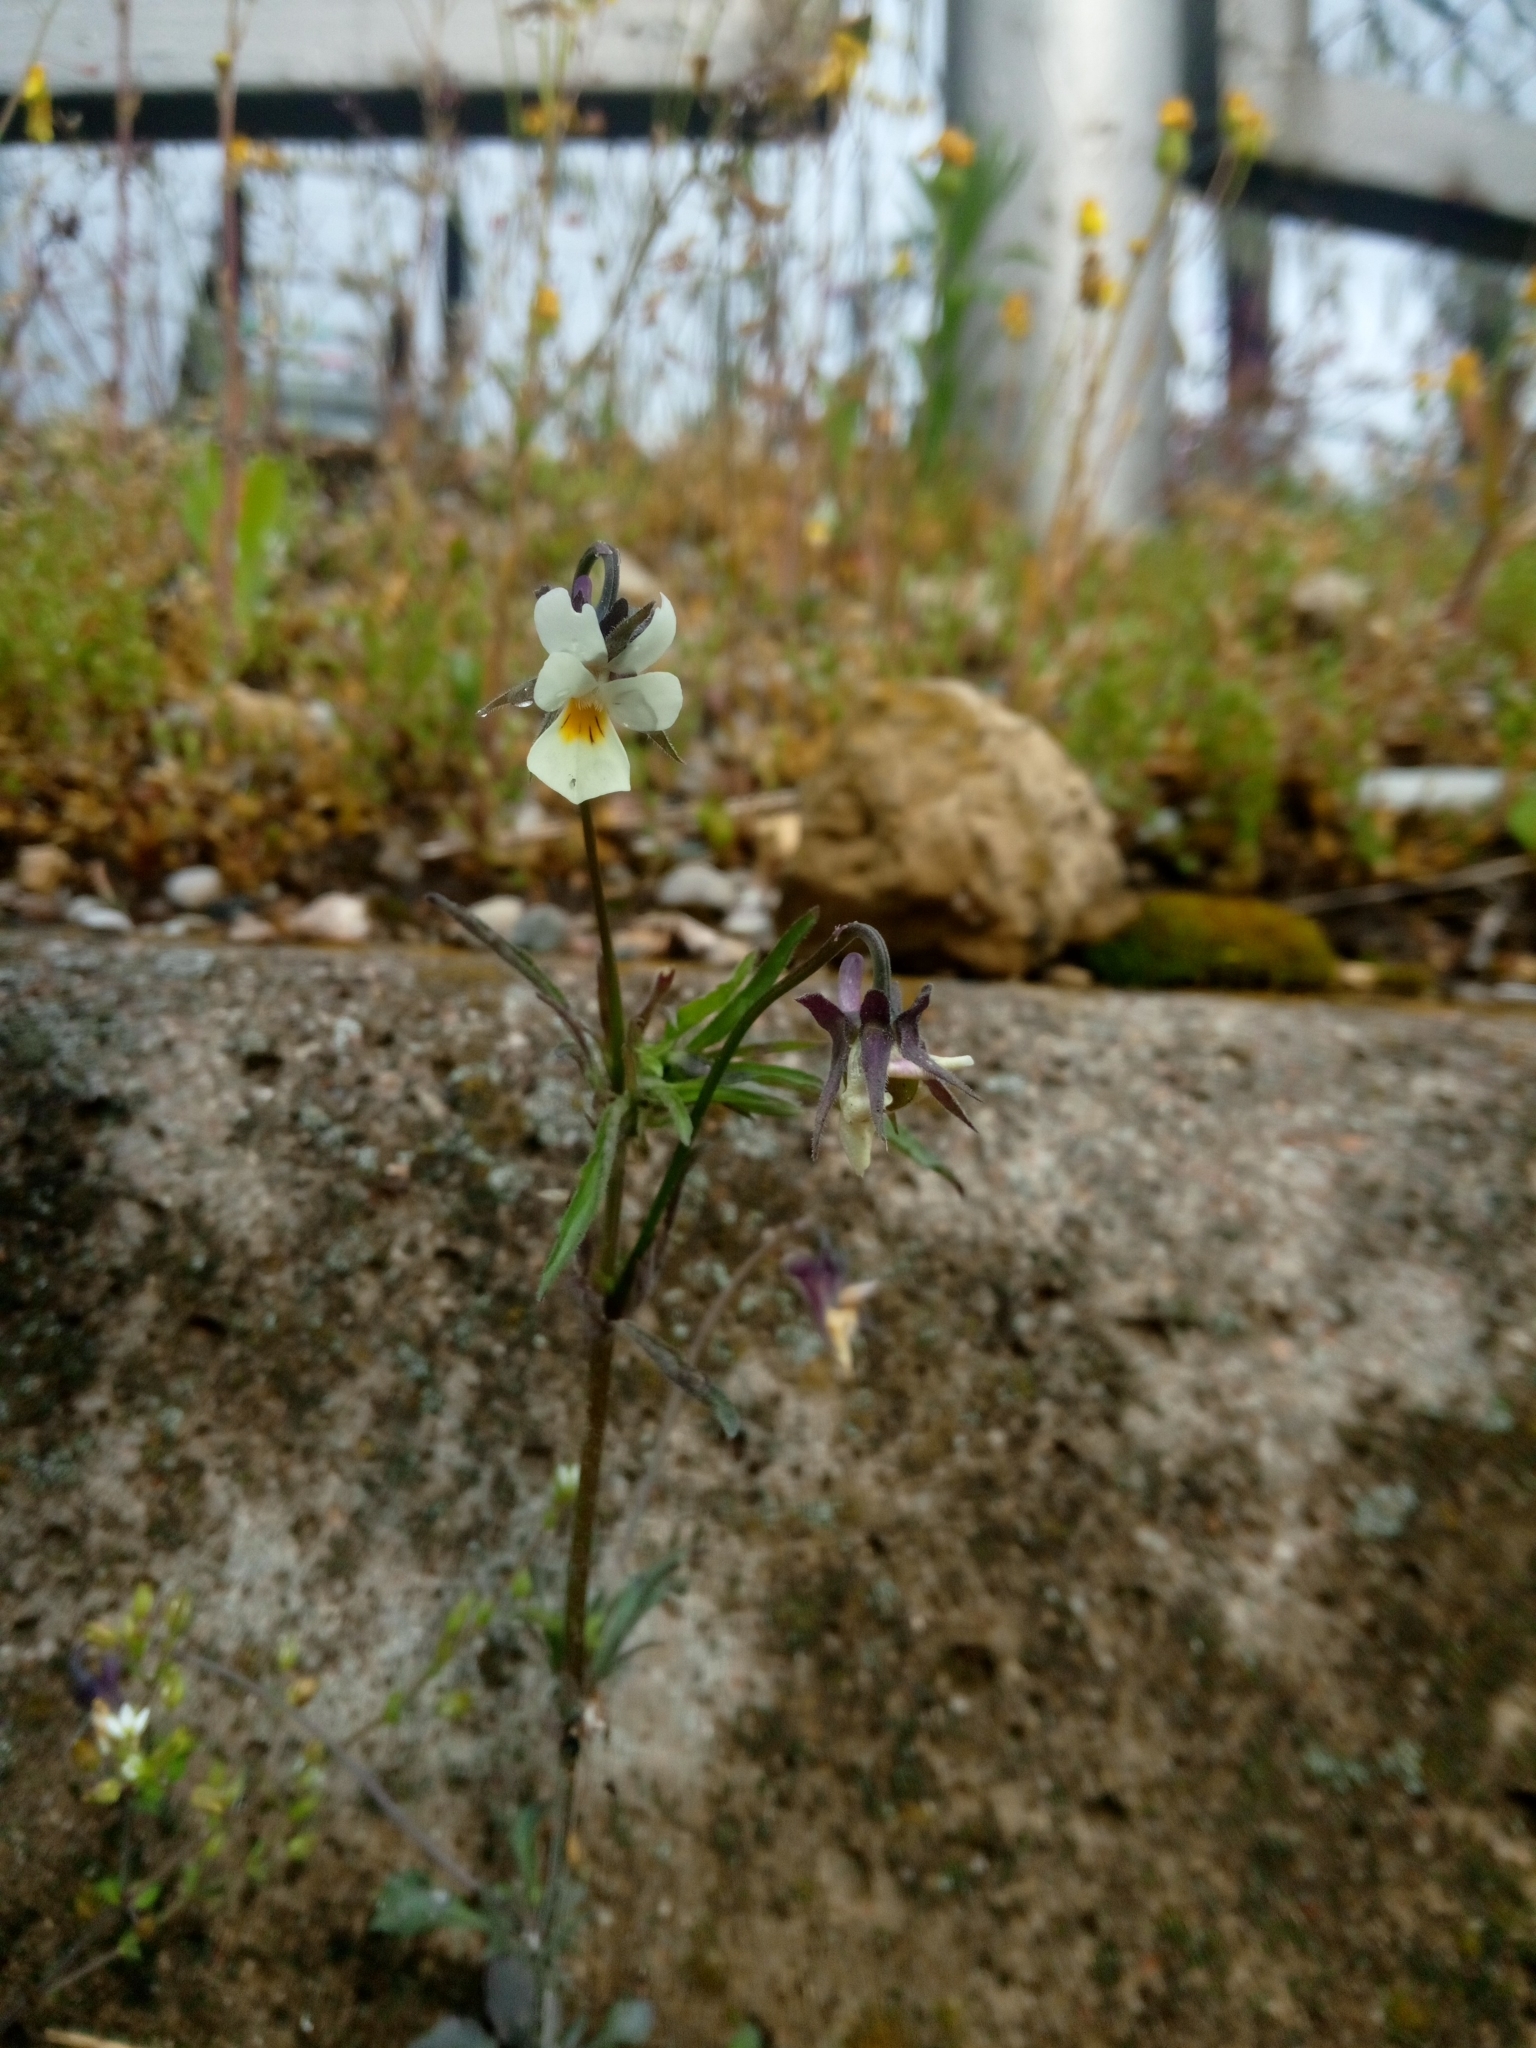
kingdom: Plantae
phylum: Tracheophyta
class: Magnoliopsida
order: Malpighiales
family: Violaceae
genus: Viola
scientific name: Viola arvensis
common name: Field pansy
